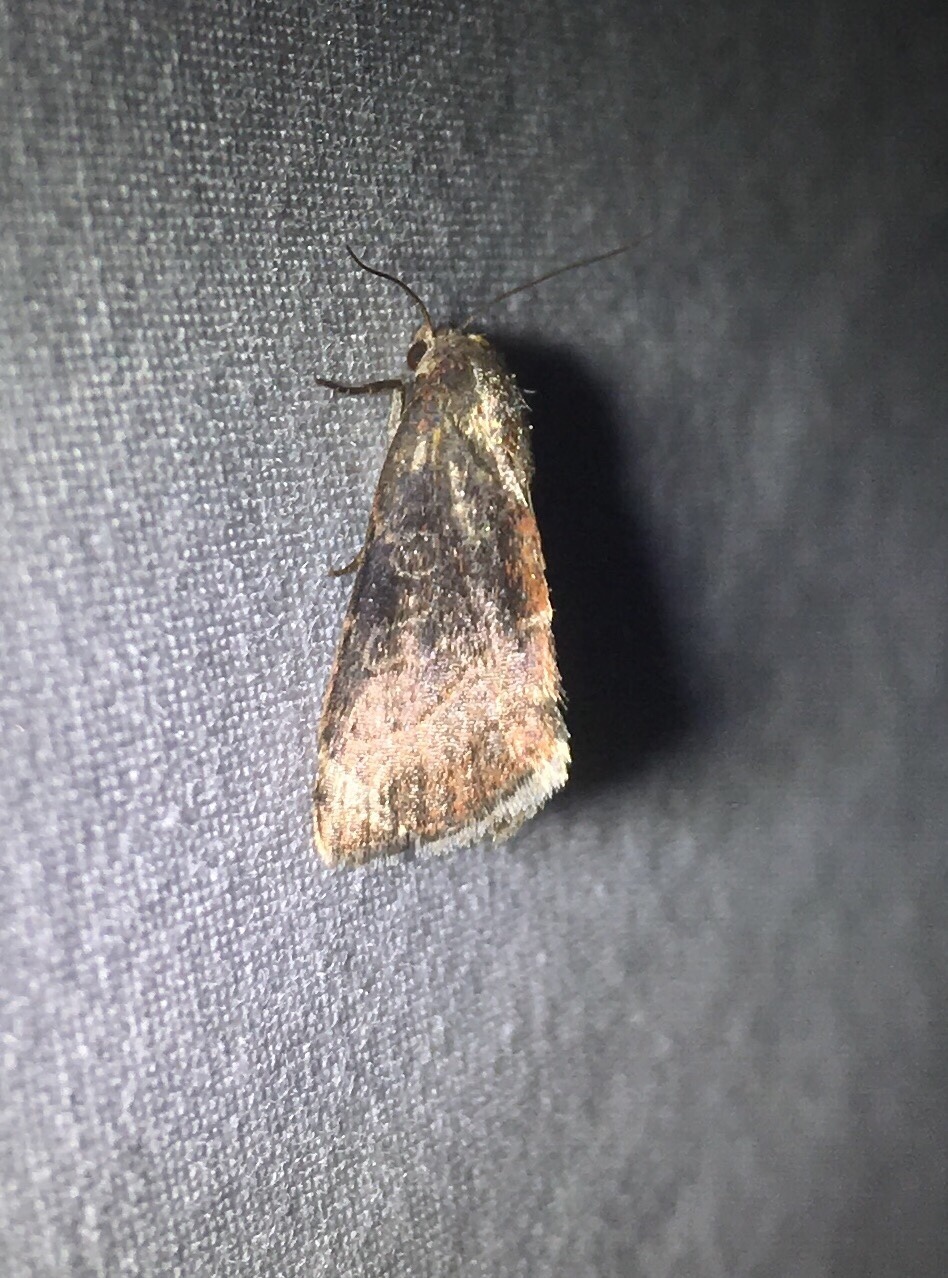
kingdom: Animalia
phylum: Arthropoda
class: Insecta
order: Lepidoptera
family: Noctuidae
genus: Ogdoconta
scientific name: Ogdoconta cinereola
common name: Common pinkband
